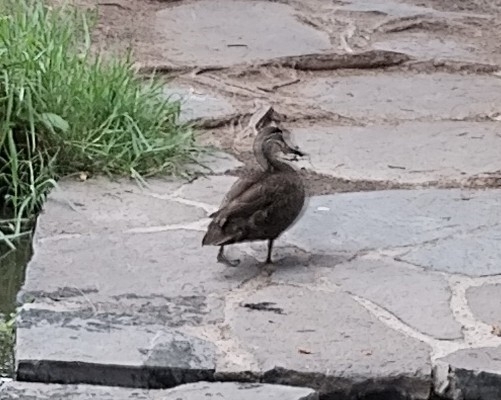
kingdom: Animalia
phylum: Chordata
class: Aves
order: Anseriformes
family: Anatidae
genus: Anas
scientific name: Anas superciliosa
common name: Pacific black duck
